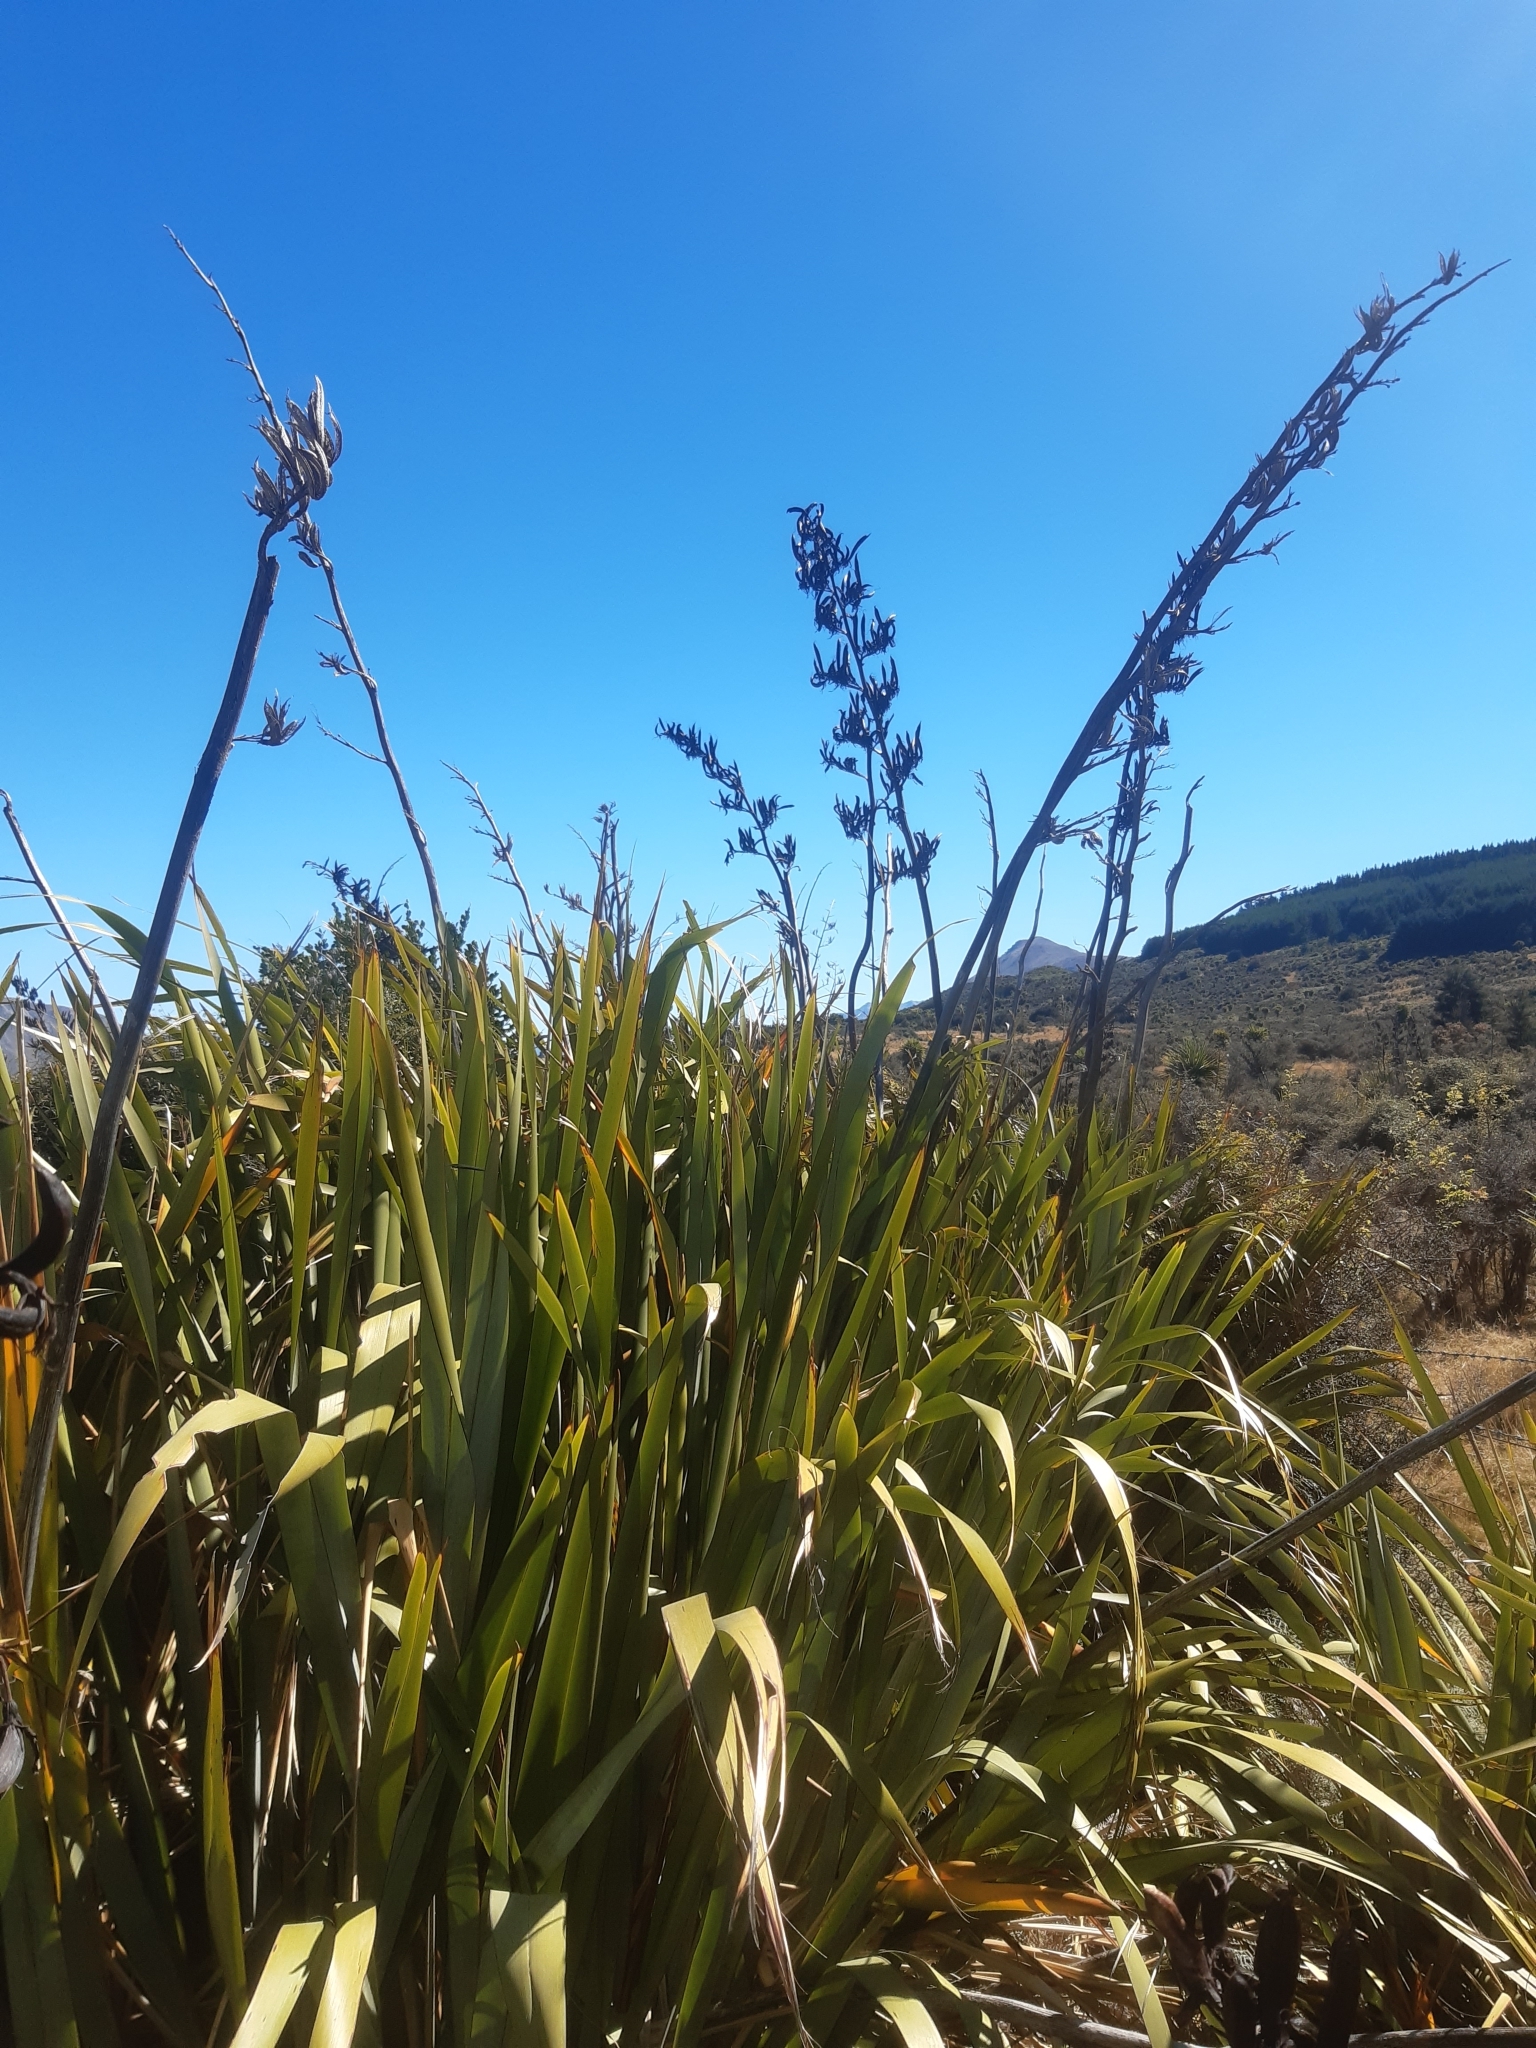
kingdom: Plantae
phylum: Tracheophyta
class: Liliopsida
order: Asparagales
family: Asphodelaceae
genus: Phormium
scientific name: Phormium tenax
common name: New zealand flax
